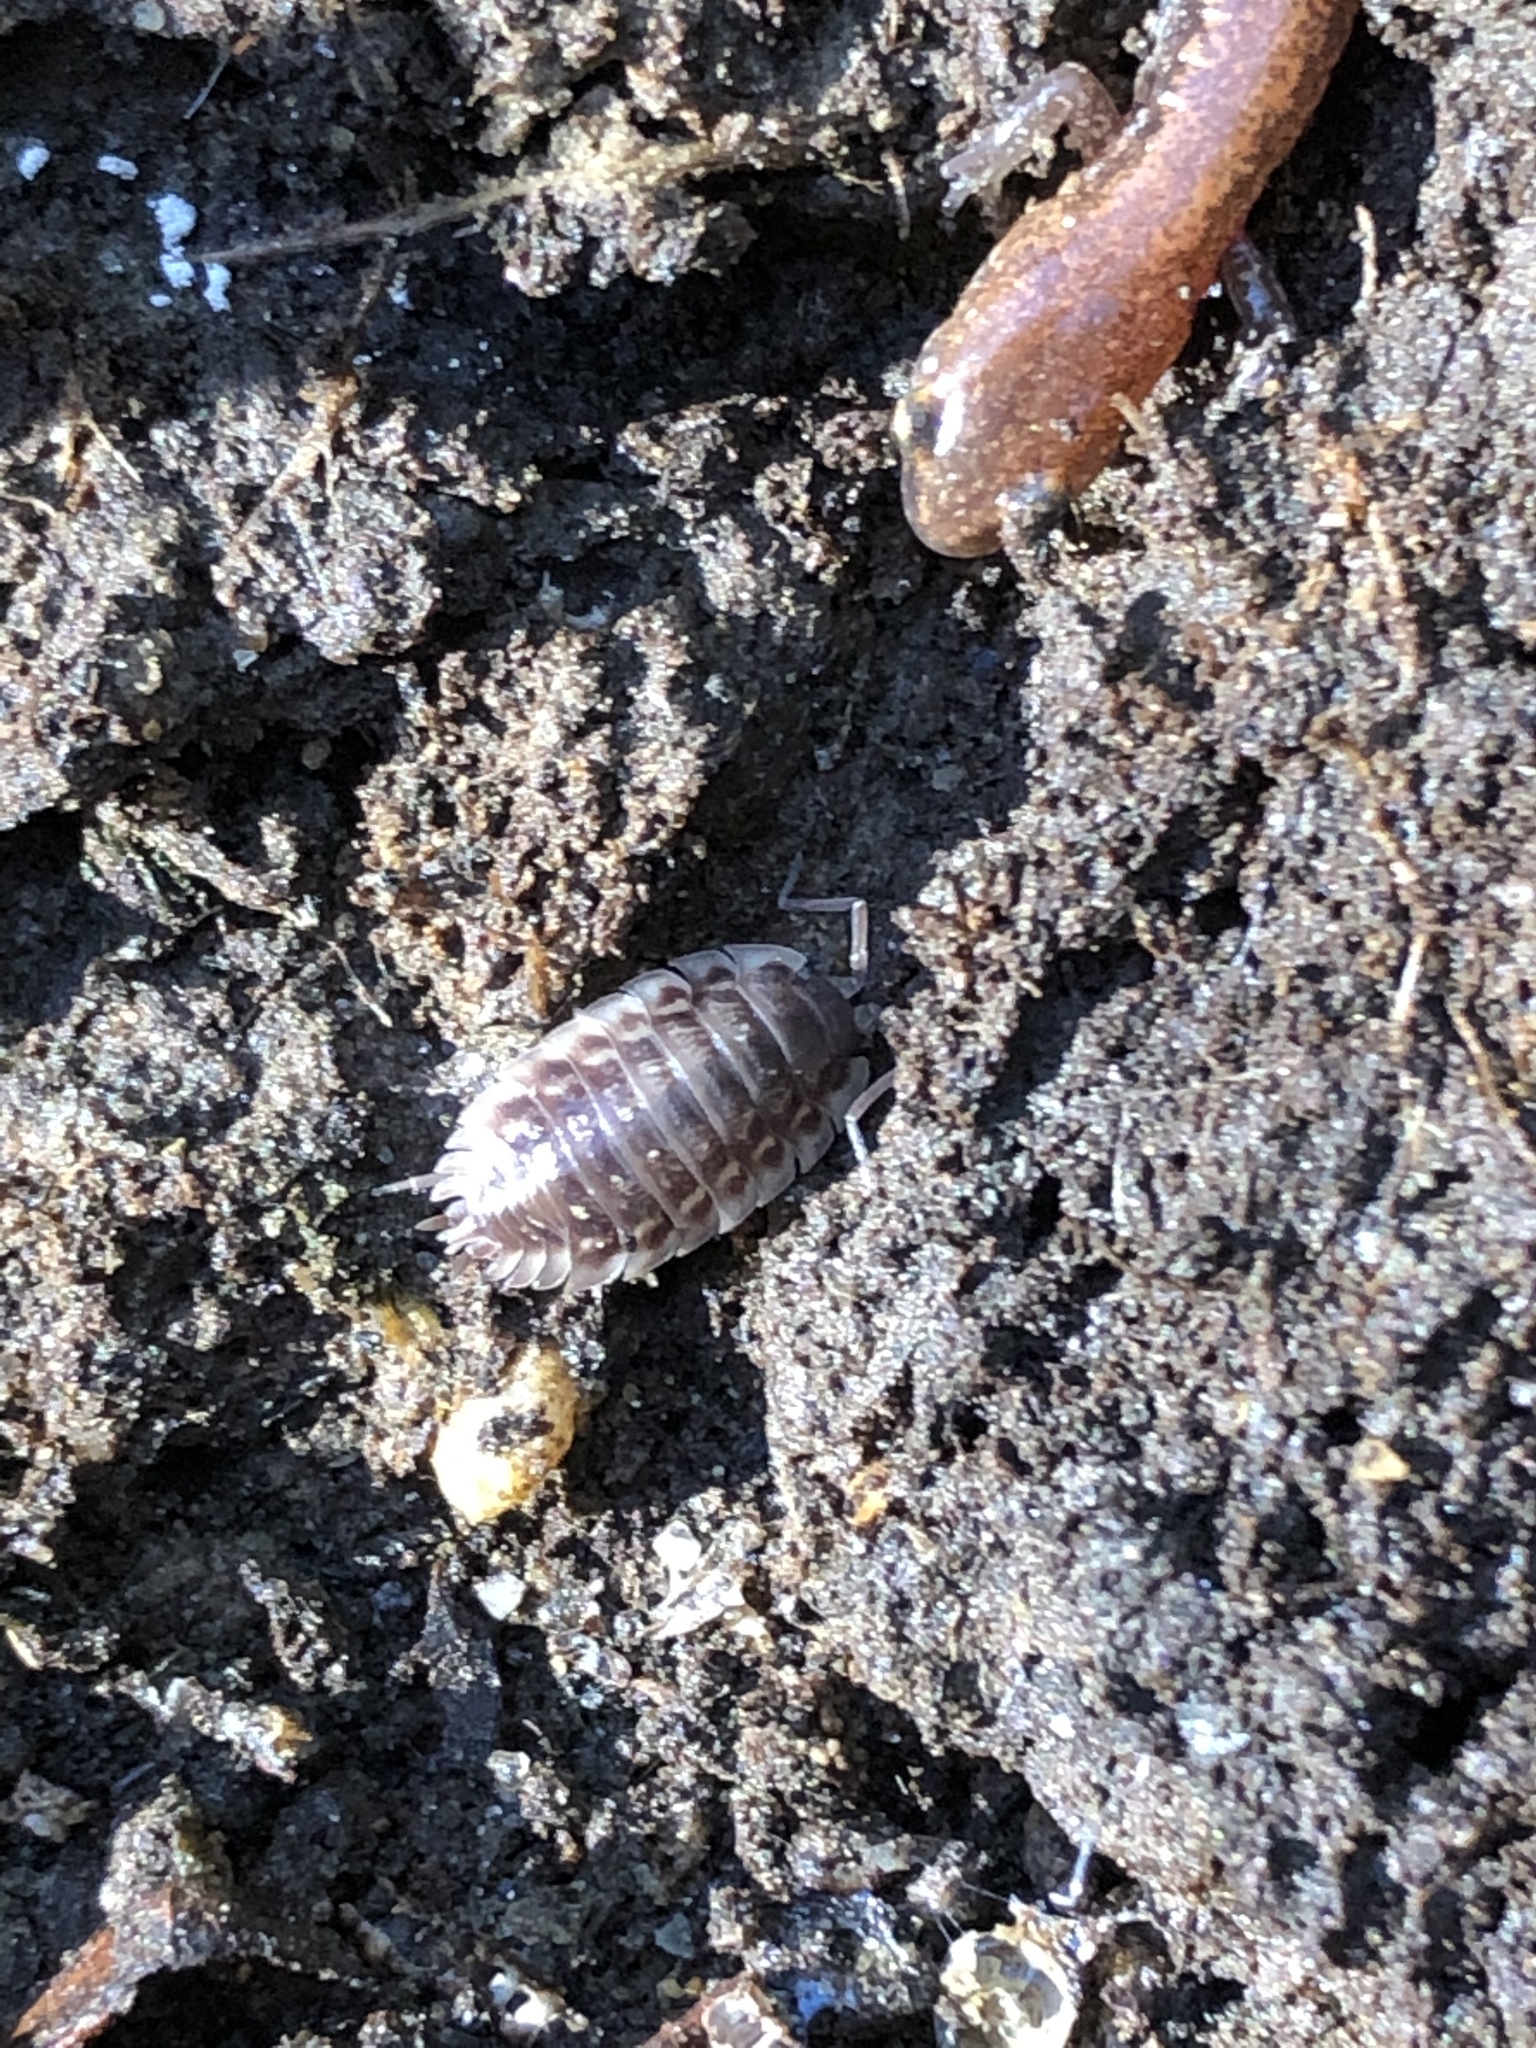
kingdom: Animalia
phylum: Arthropoda
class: Malacostraca
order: Isopoda
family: Oniscidae
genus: Oniscus
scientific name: Oniscus asellus
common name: Common shiny woodlouse
